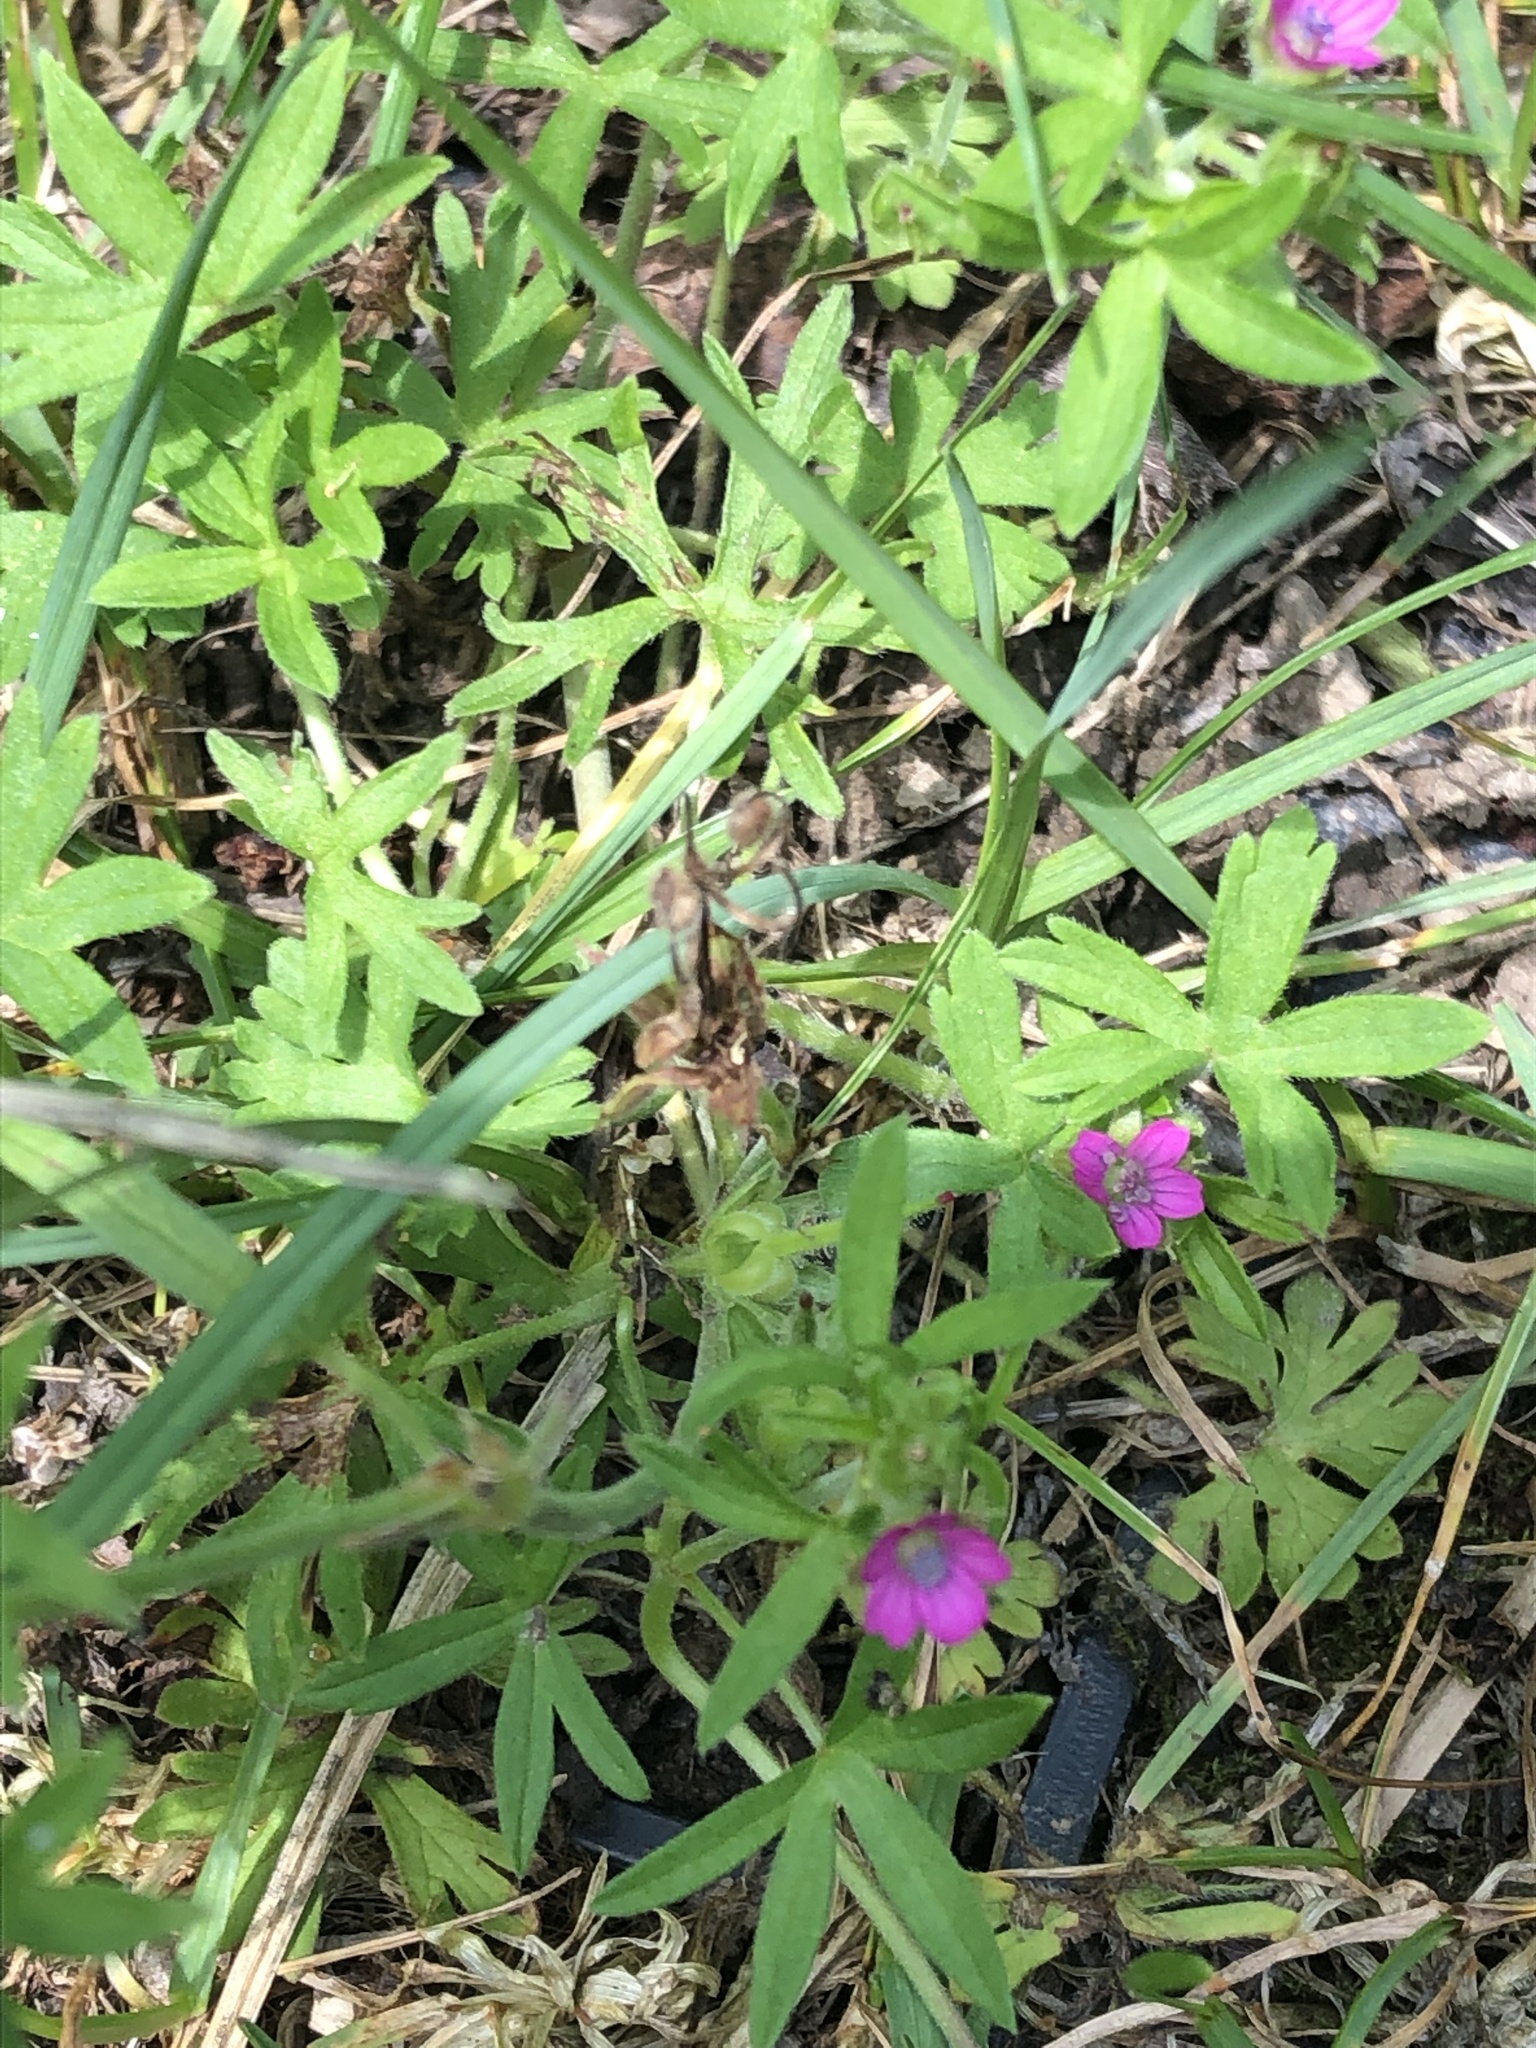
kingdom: Plantae
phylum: Tracheophyta
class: Magnoliopsida
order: Geraniales
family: Geraniaceae
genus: Geranium
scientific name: Geranium dissectum
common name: Cut-leaved crane's-bill
